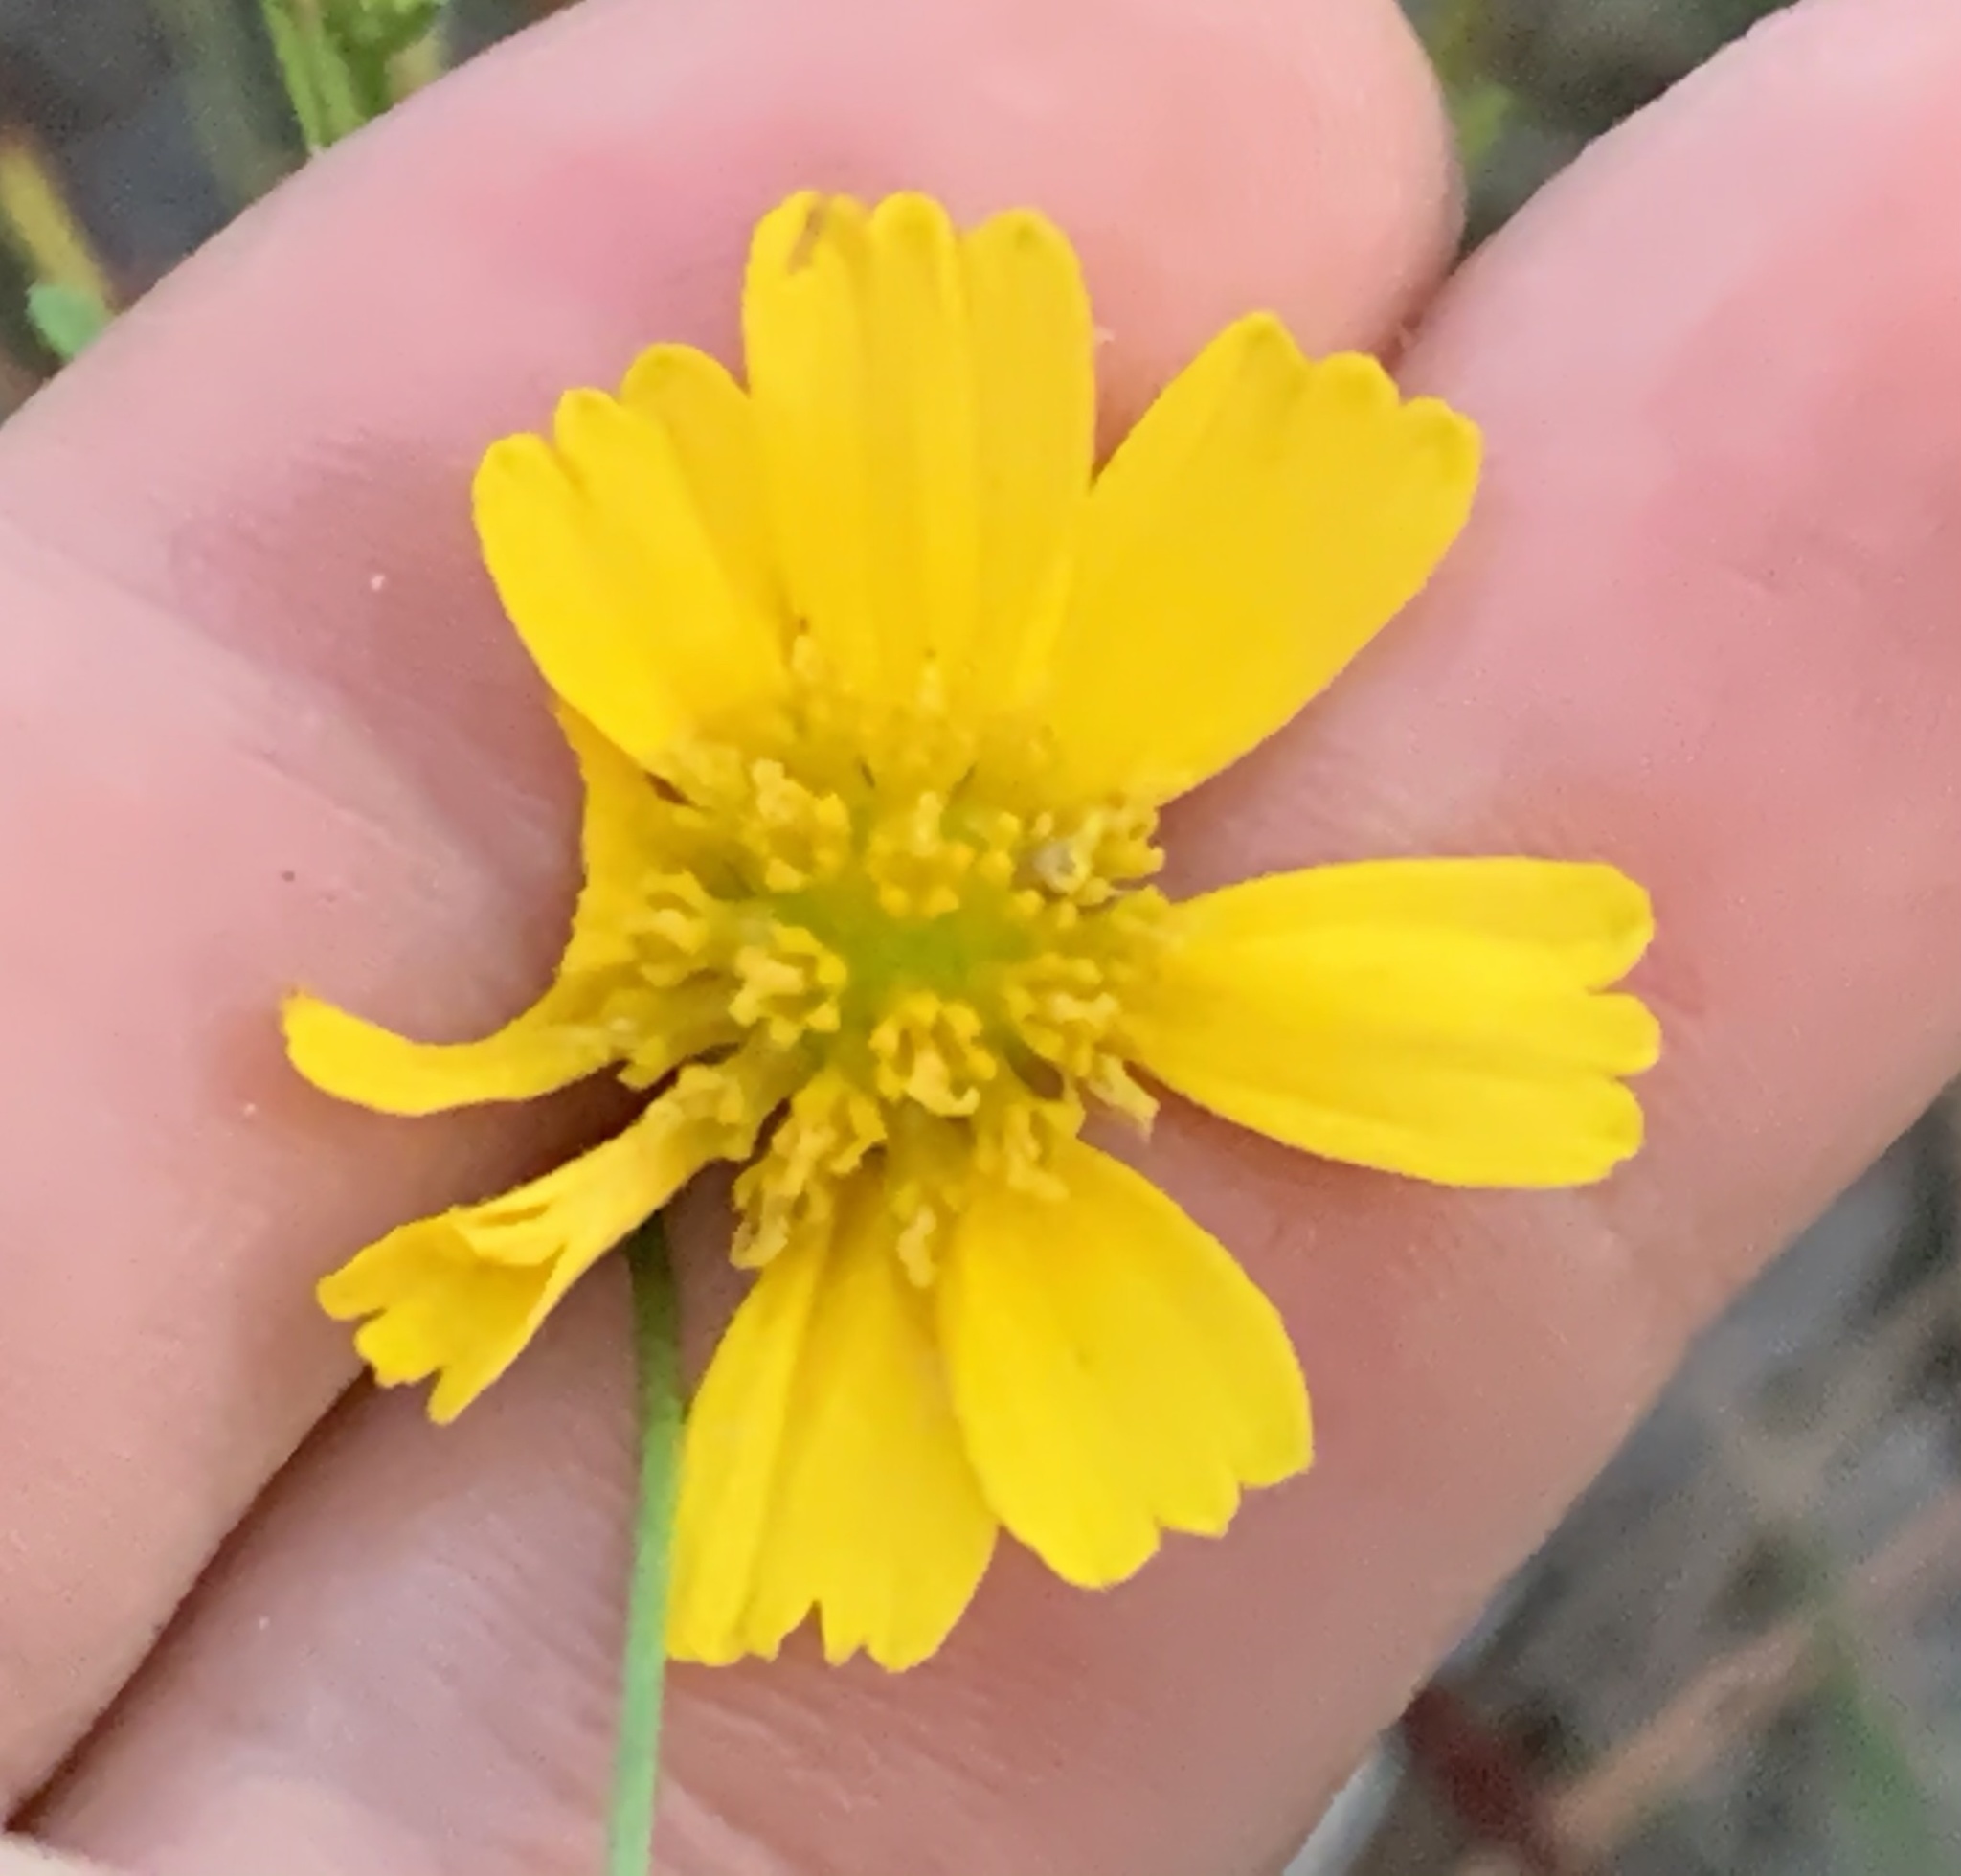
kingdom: Plantae
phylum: Tracheophyta
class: Magnoliopsida
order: Asterales
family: Asteraceae
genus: Balduina
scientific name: Balduina angustifolia
